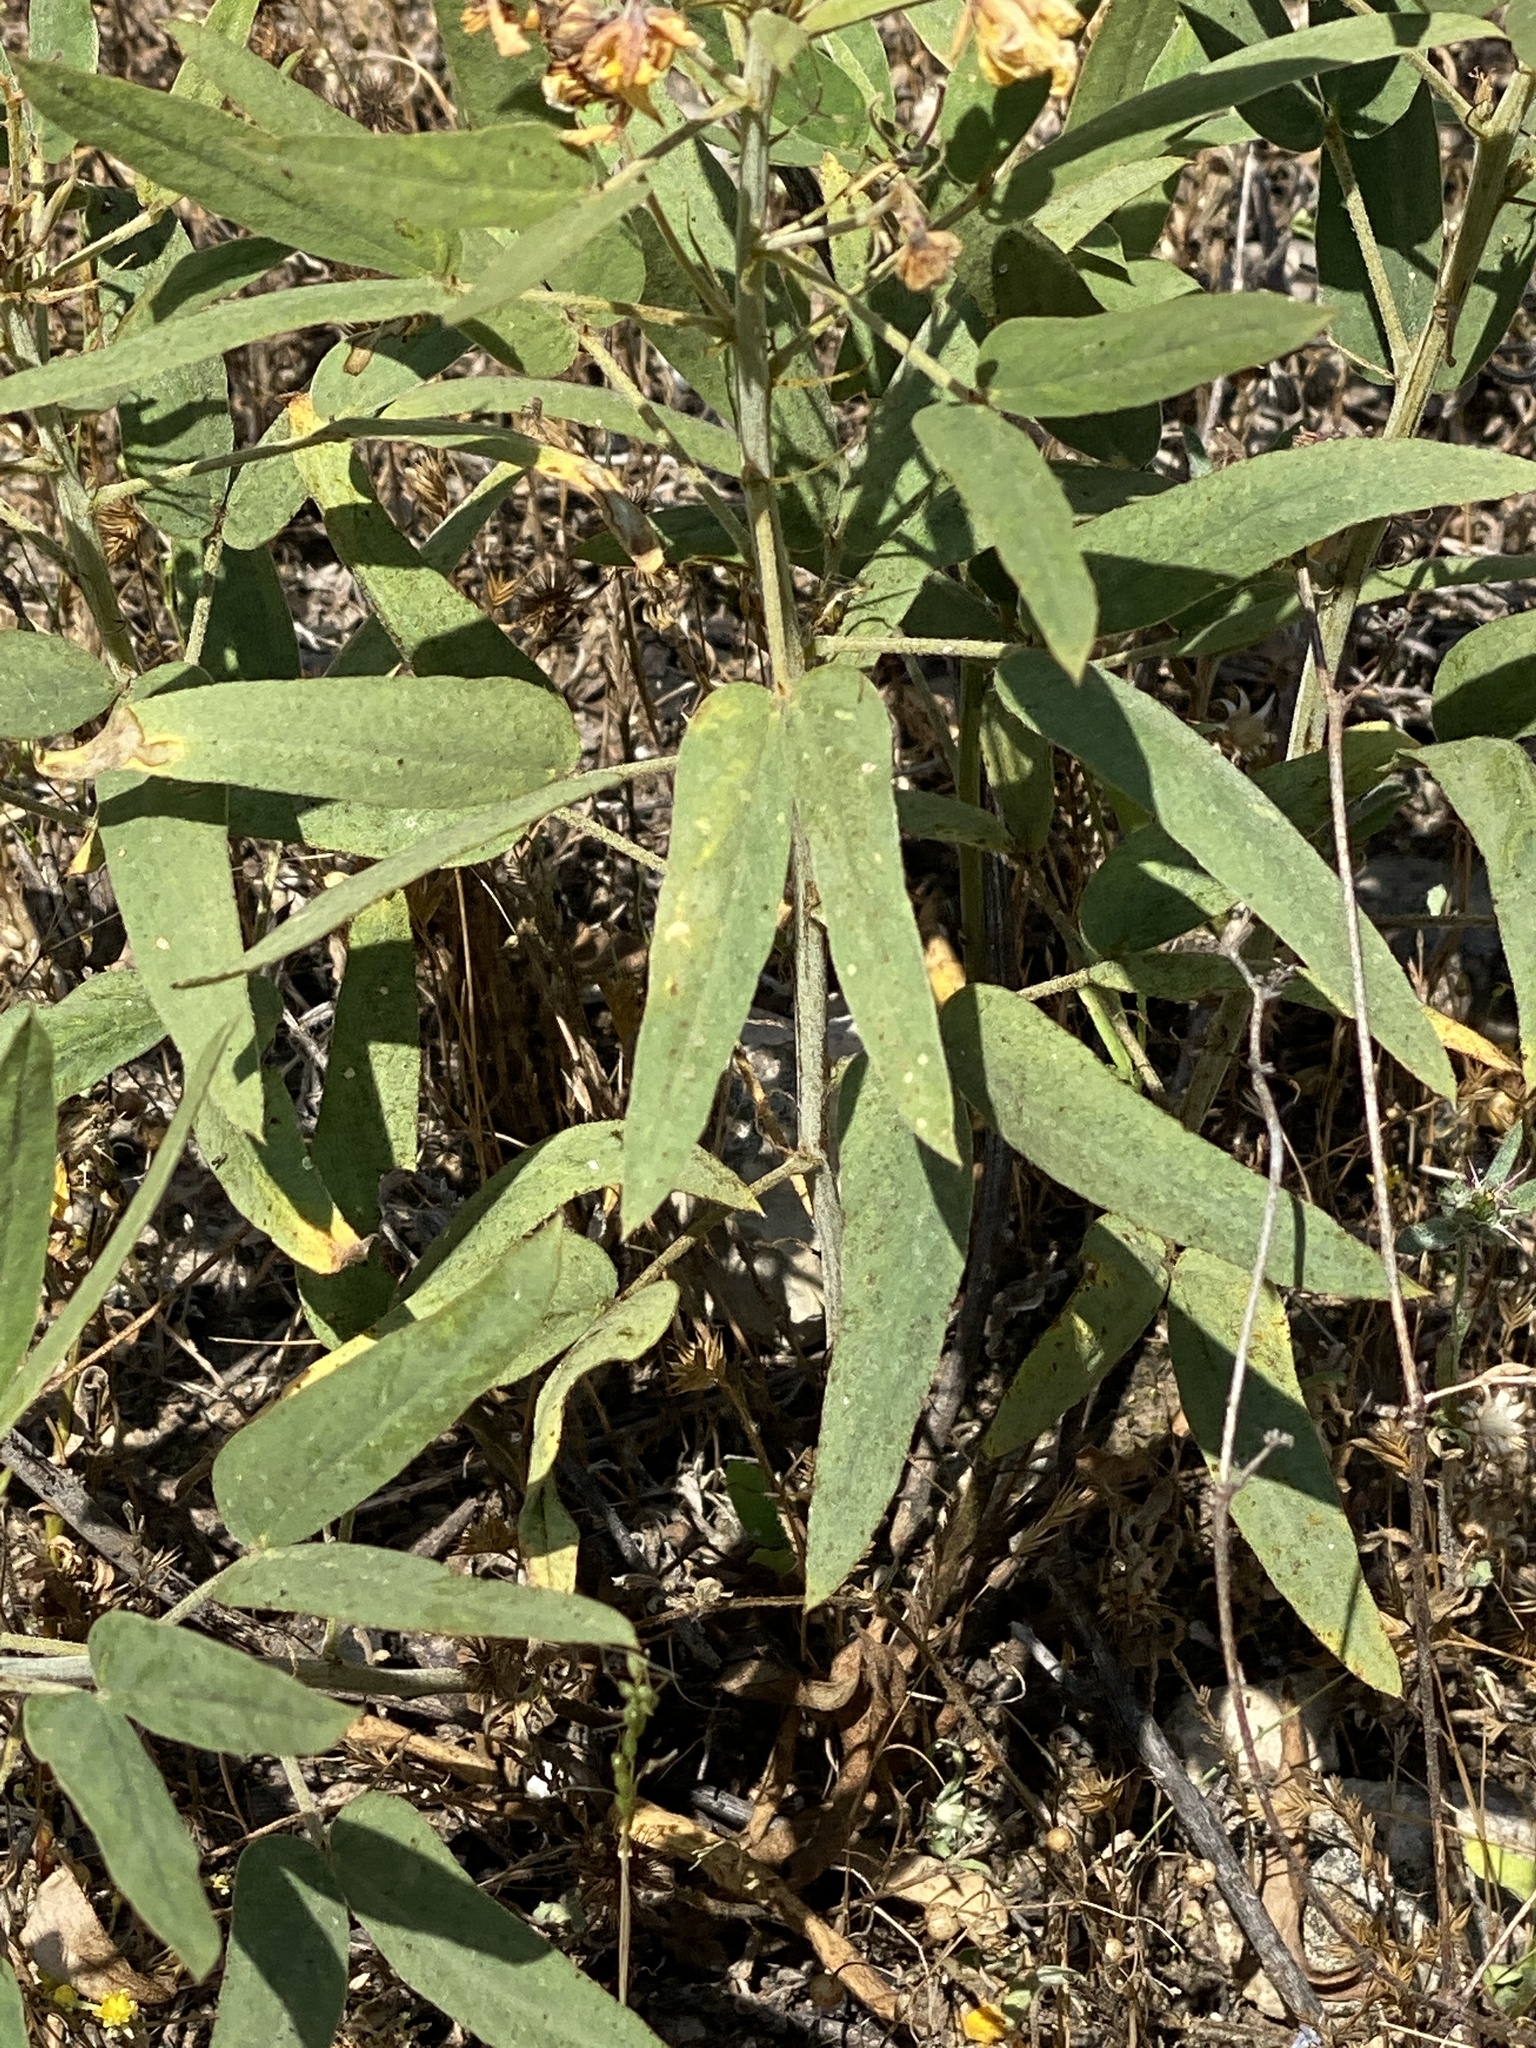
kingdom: Plantae
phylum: Tracheophyta
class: Magnoliopsida
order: Fabales
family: Fabaceae
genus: Senna
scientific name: Senna roemeriana
